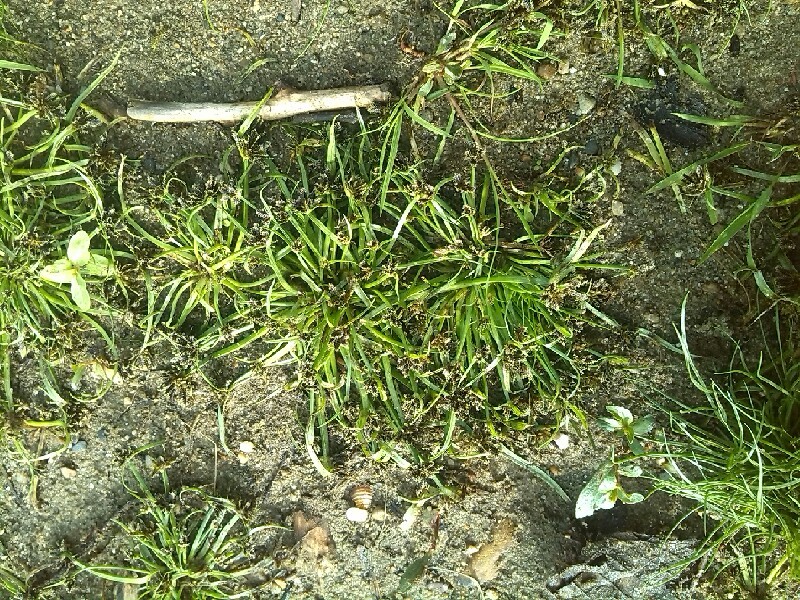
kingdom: Plantae
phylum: Tracheophyta
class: Liliopsida
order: Poales
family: Cyperaceae
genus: Cyperus
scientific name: Cyperus fuscus
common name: Brown galingale
